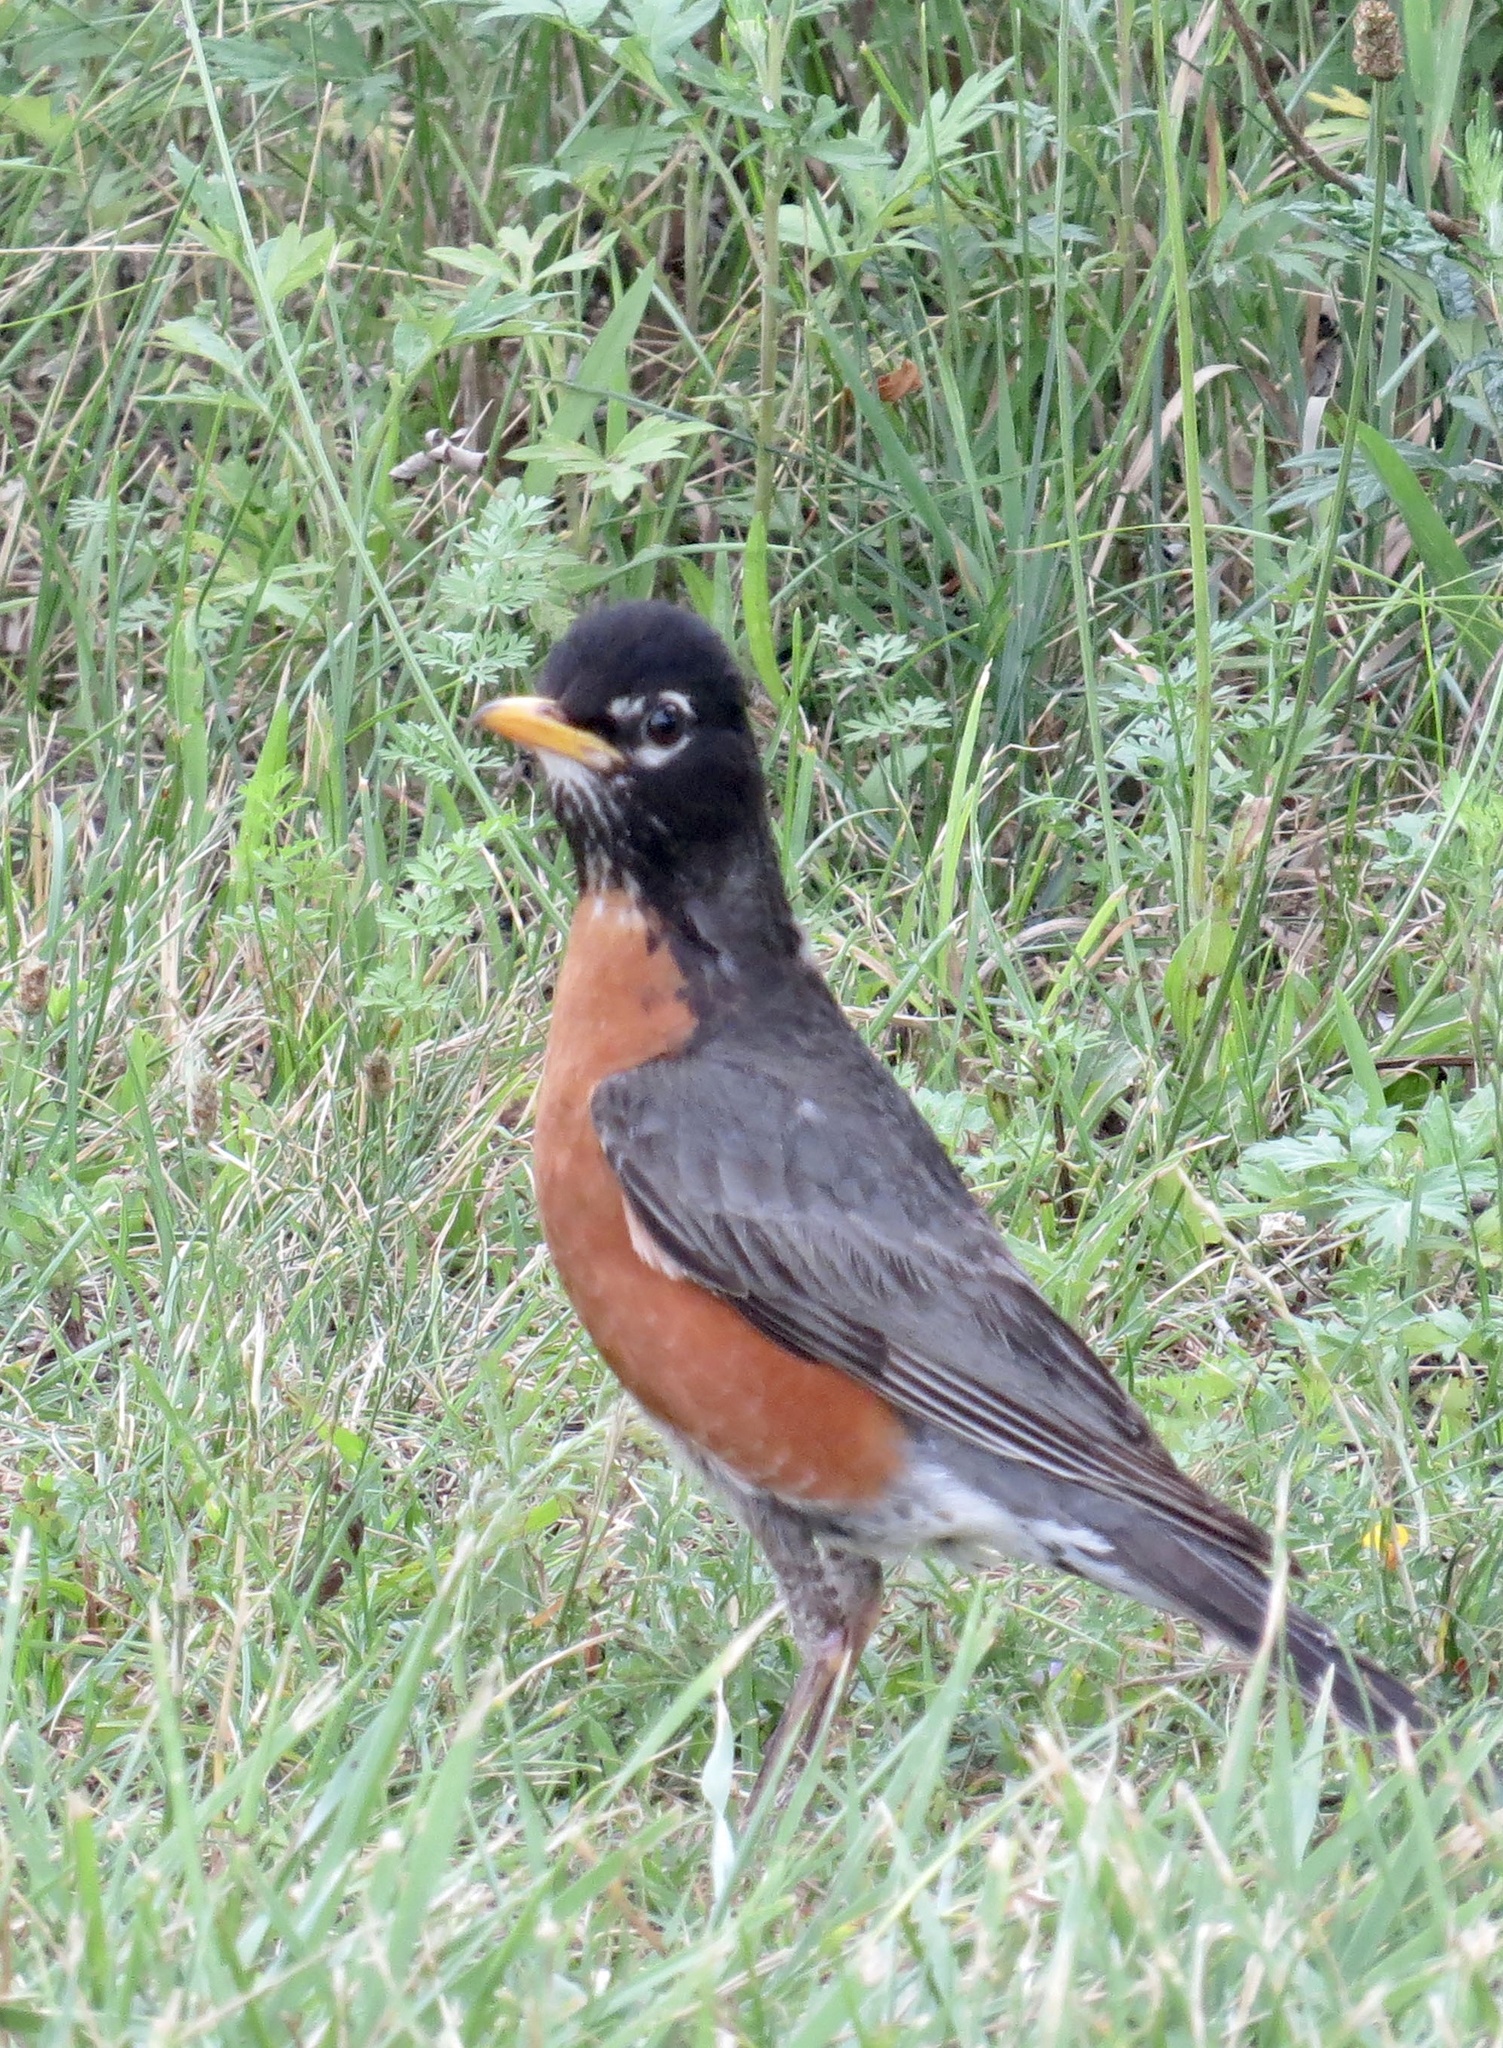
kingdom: Animalia
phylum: Chordata
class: Aves
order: Passeriformes
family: Turdidae
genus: Turdus
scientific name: Turdus migratorius
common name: American robin
